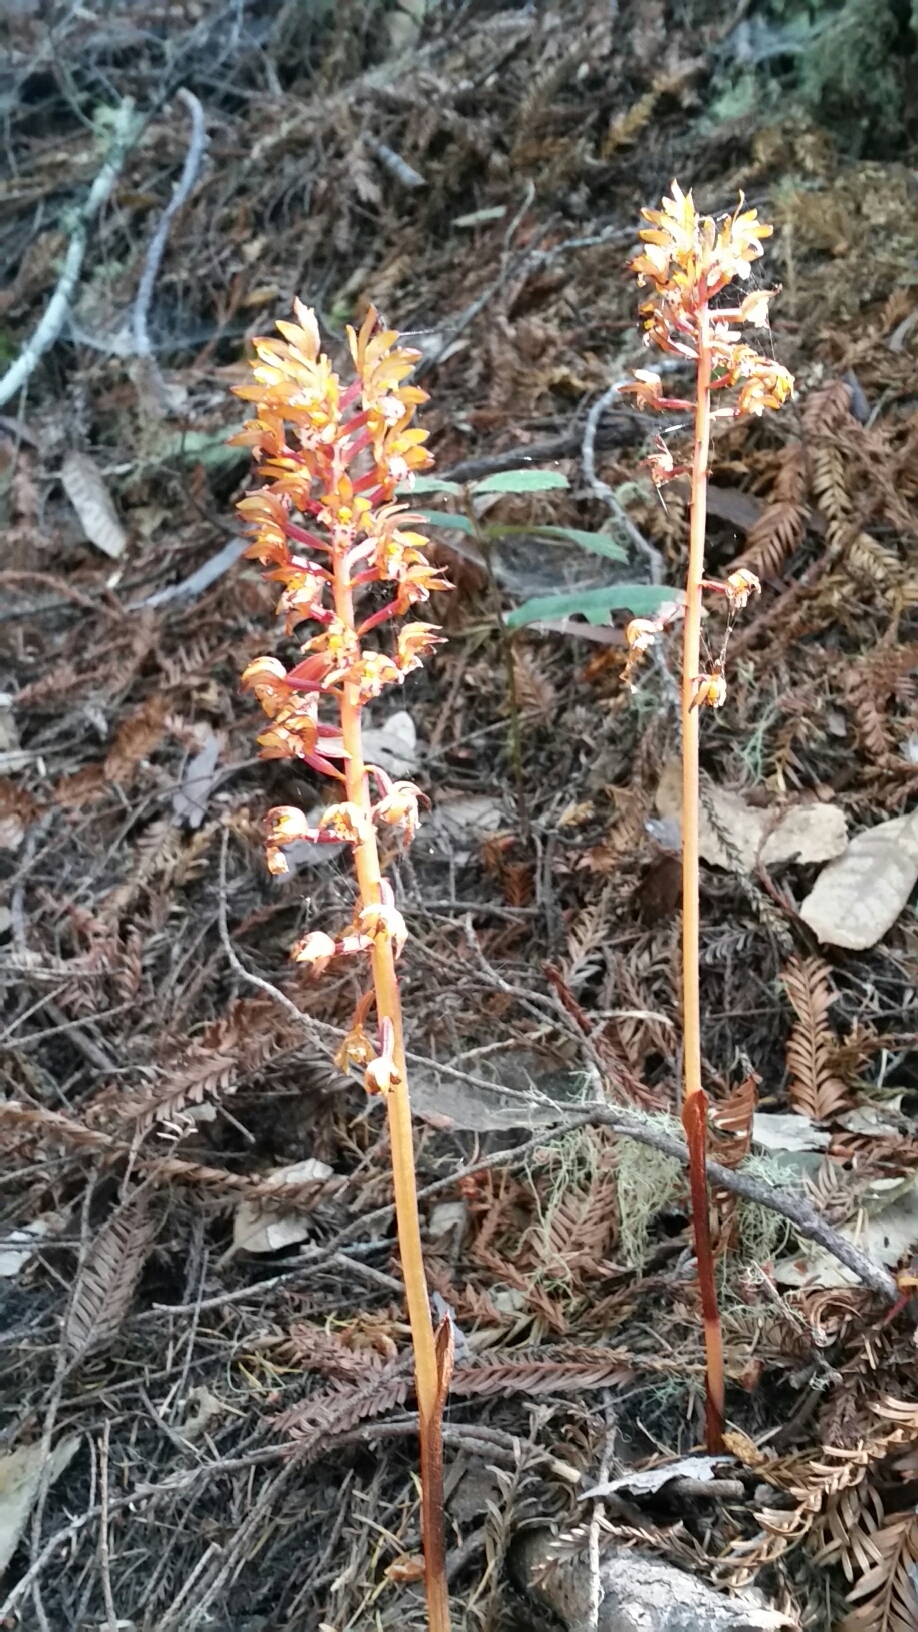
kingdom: Plantae
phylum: Tracheophyta
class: Liliopsida
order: Asparagales
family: Orchidaceae
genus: Corallorhiza
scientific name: Corallorhiza maculata
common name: Spotted coralroot
